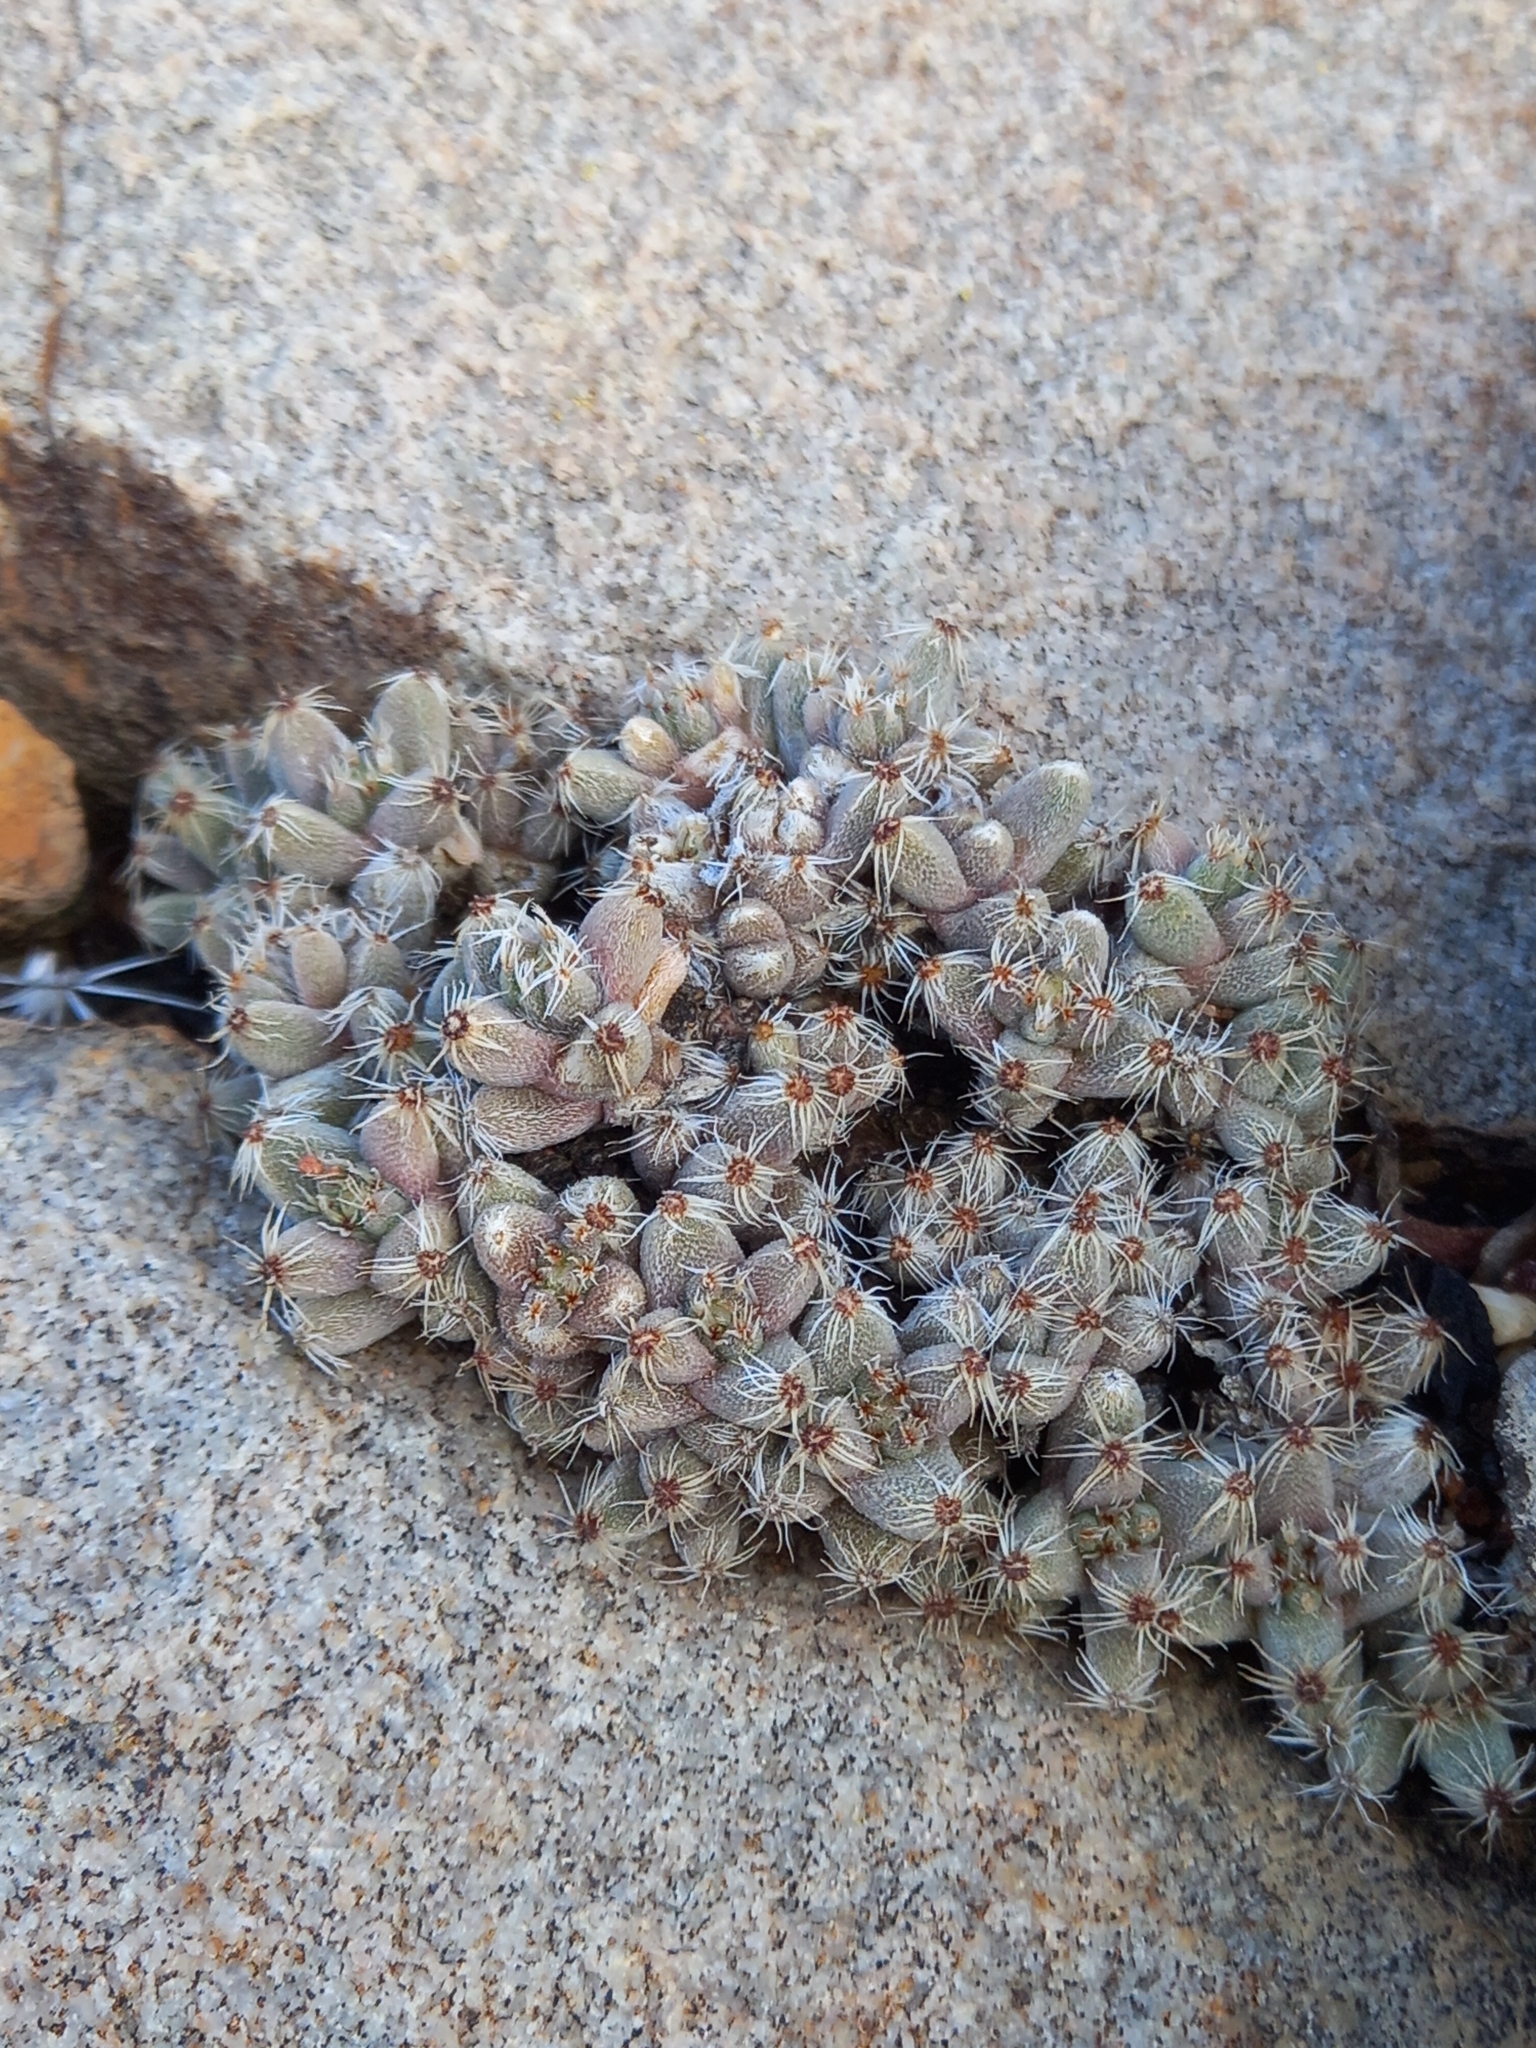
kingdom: Plantae
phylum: Tracheophyta
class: Magnoliopsida
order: Caryophyllales
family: Aizoaceae
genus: Trichodiadema
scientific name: Trichodiadema marlothii
